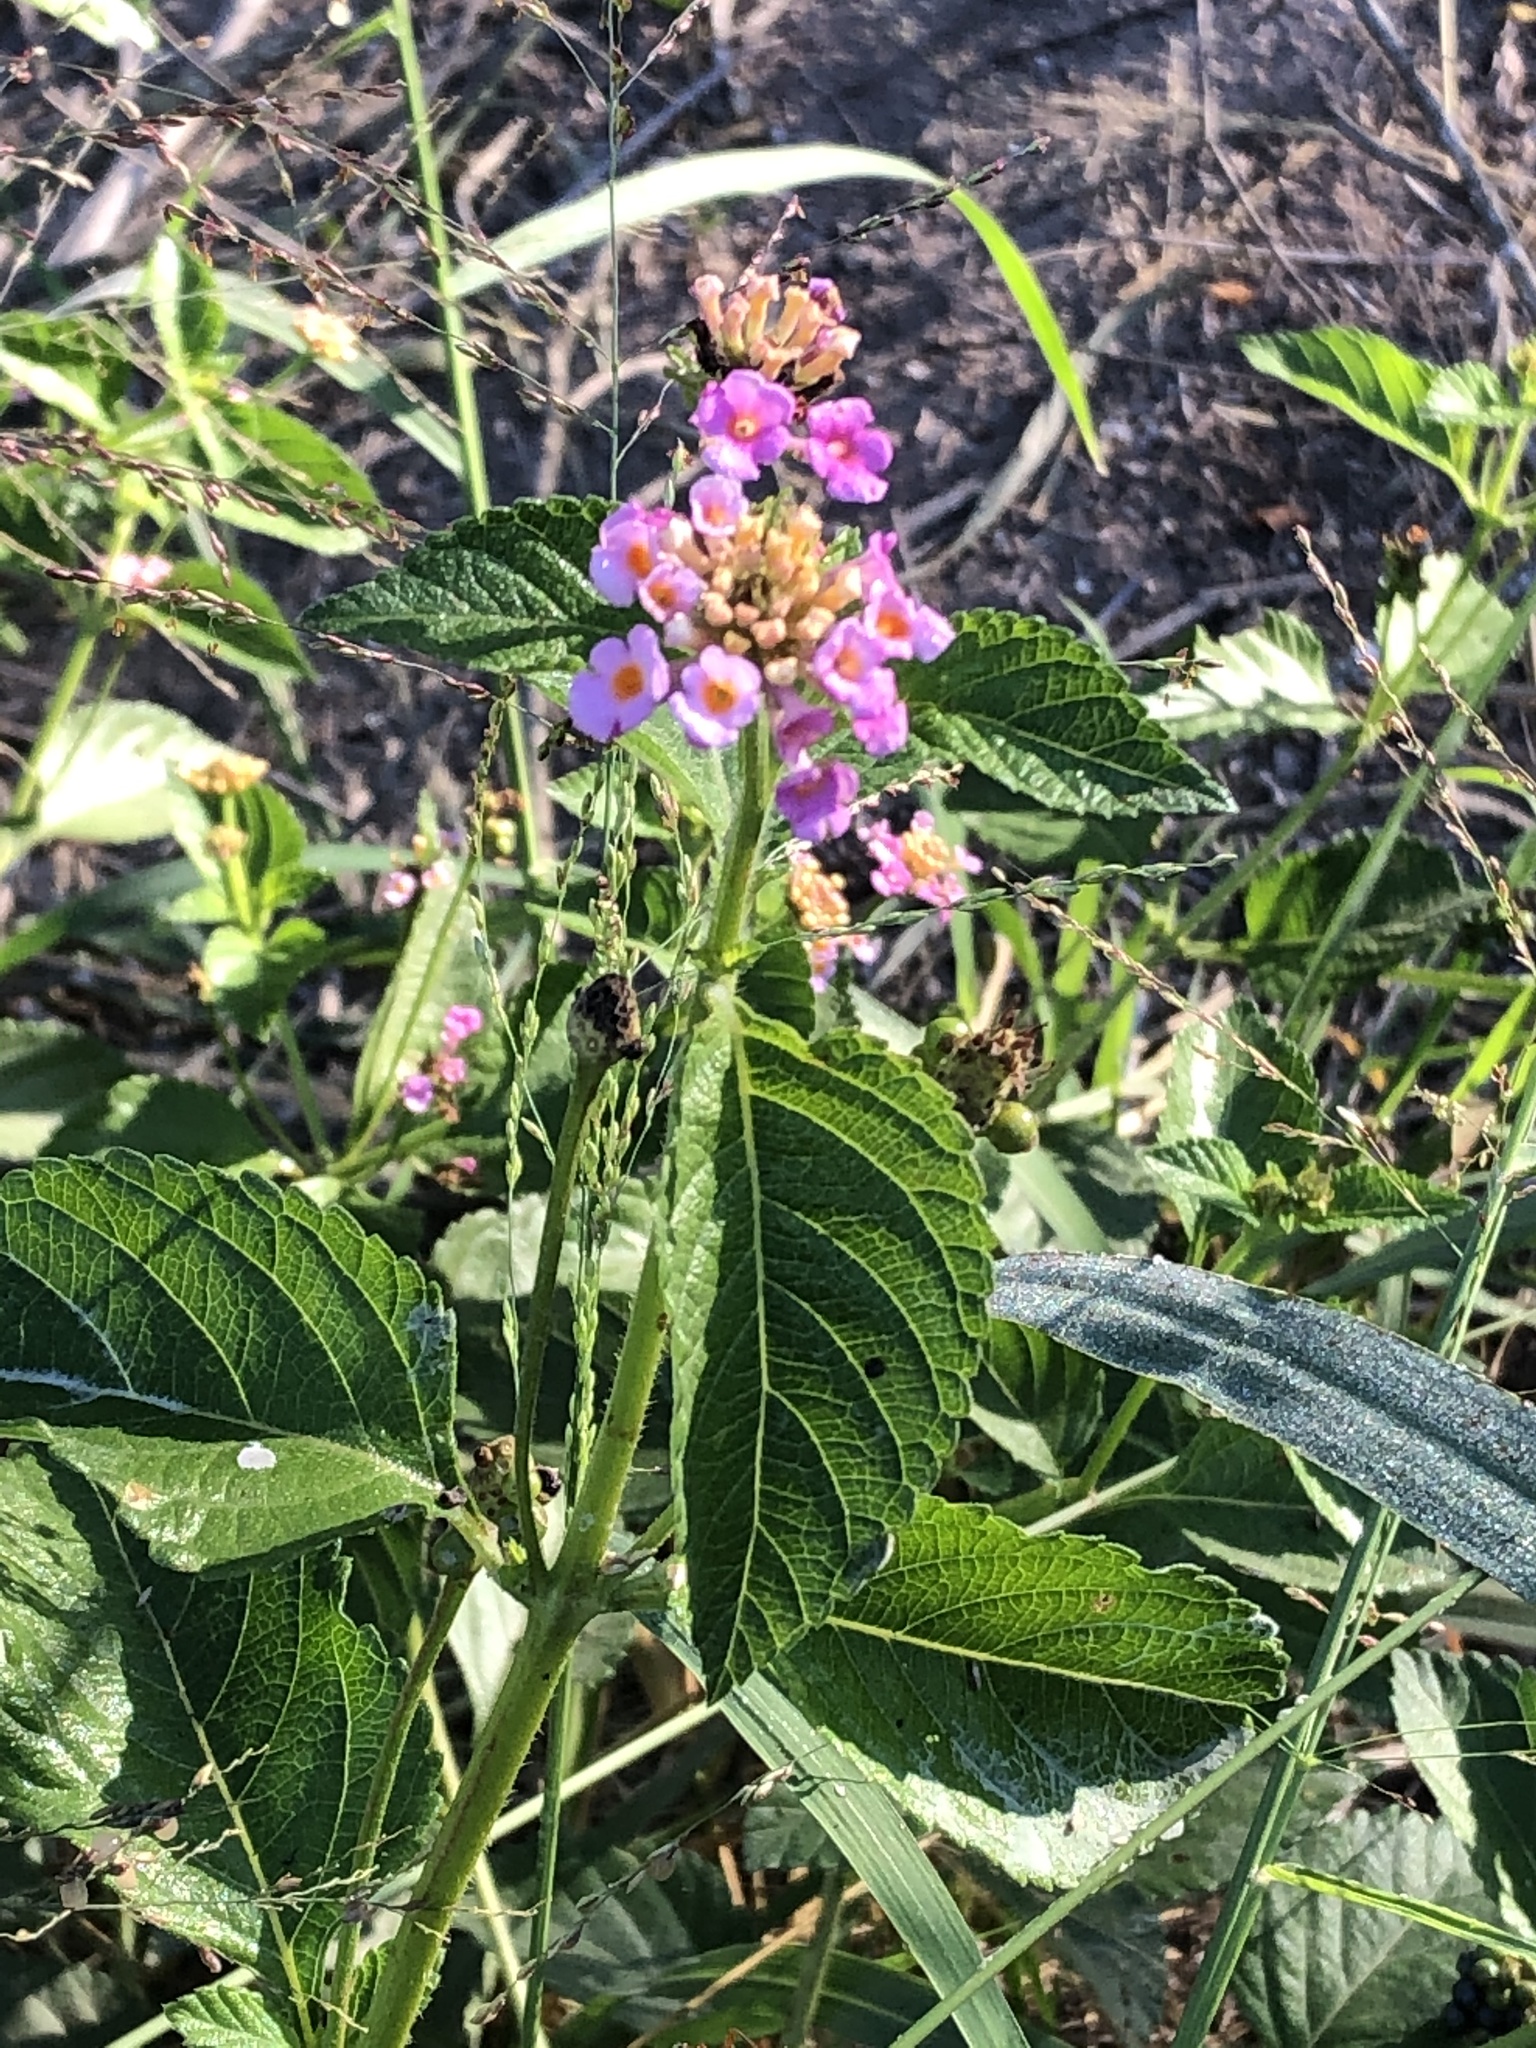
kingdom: Plantae
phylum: Tracheophyta
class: Magnoliopsida
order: Lamiales
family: Verbenaceae
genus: Lantana
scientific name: Lantana strigocamara
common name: Lantana
